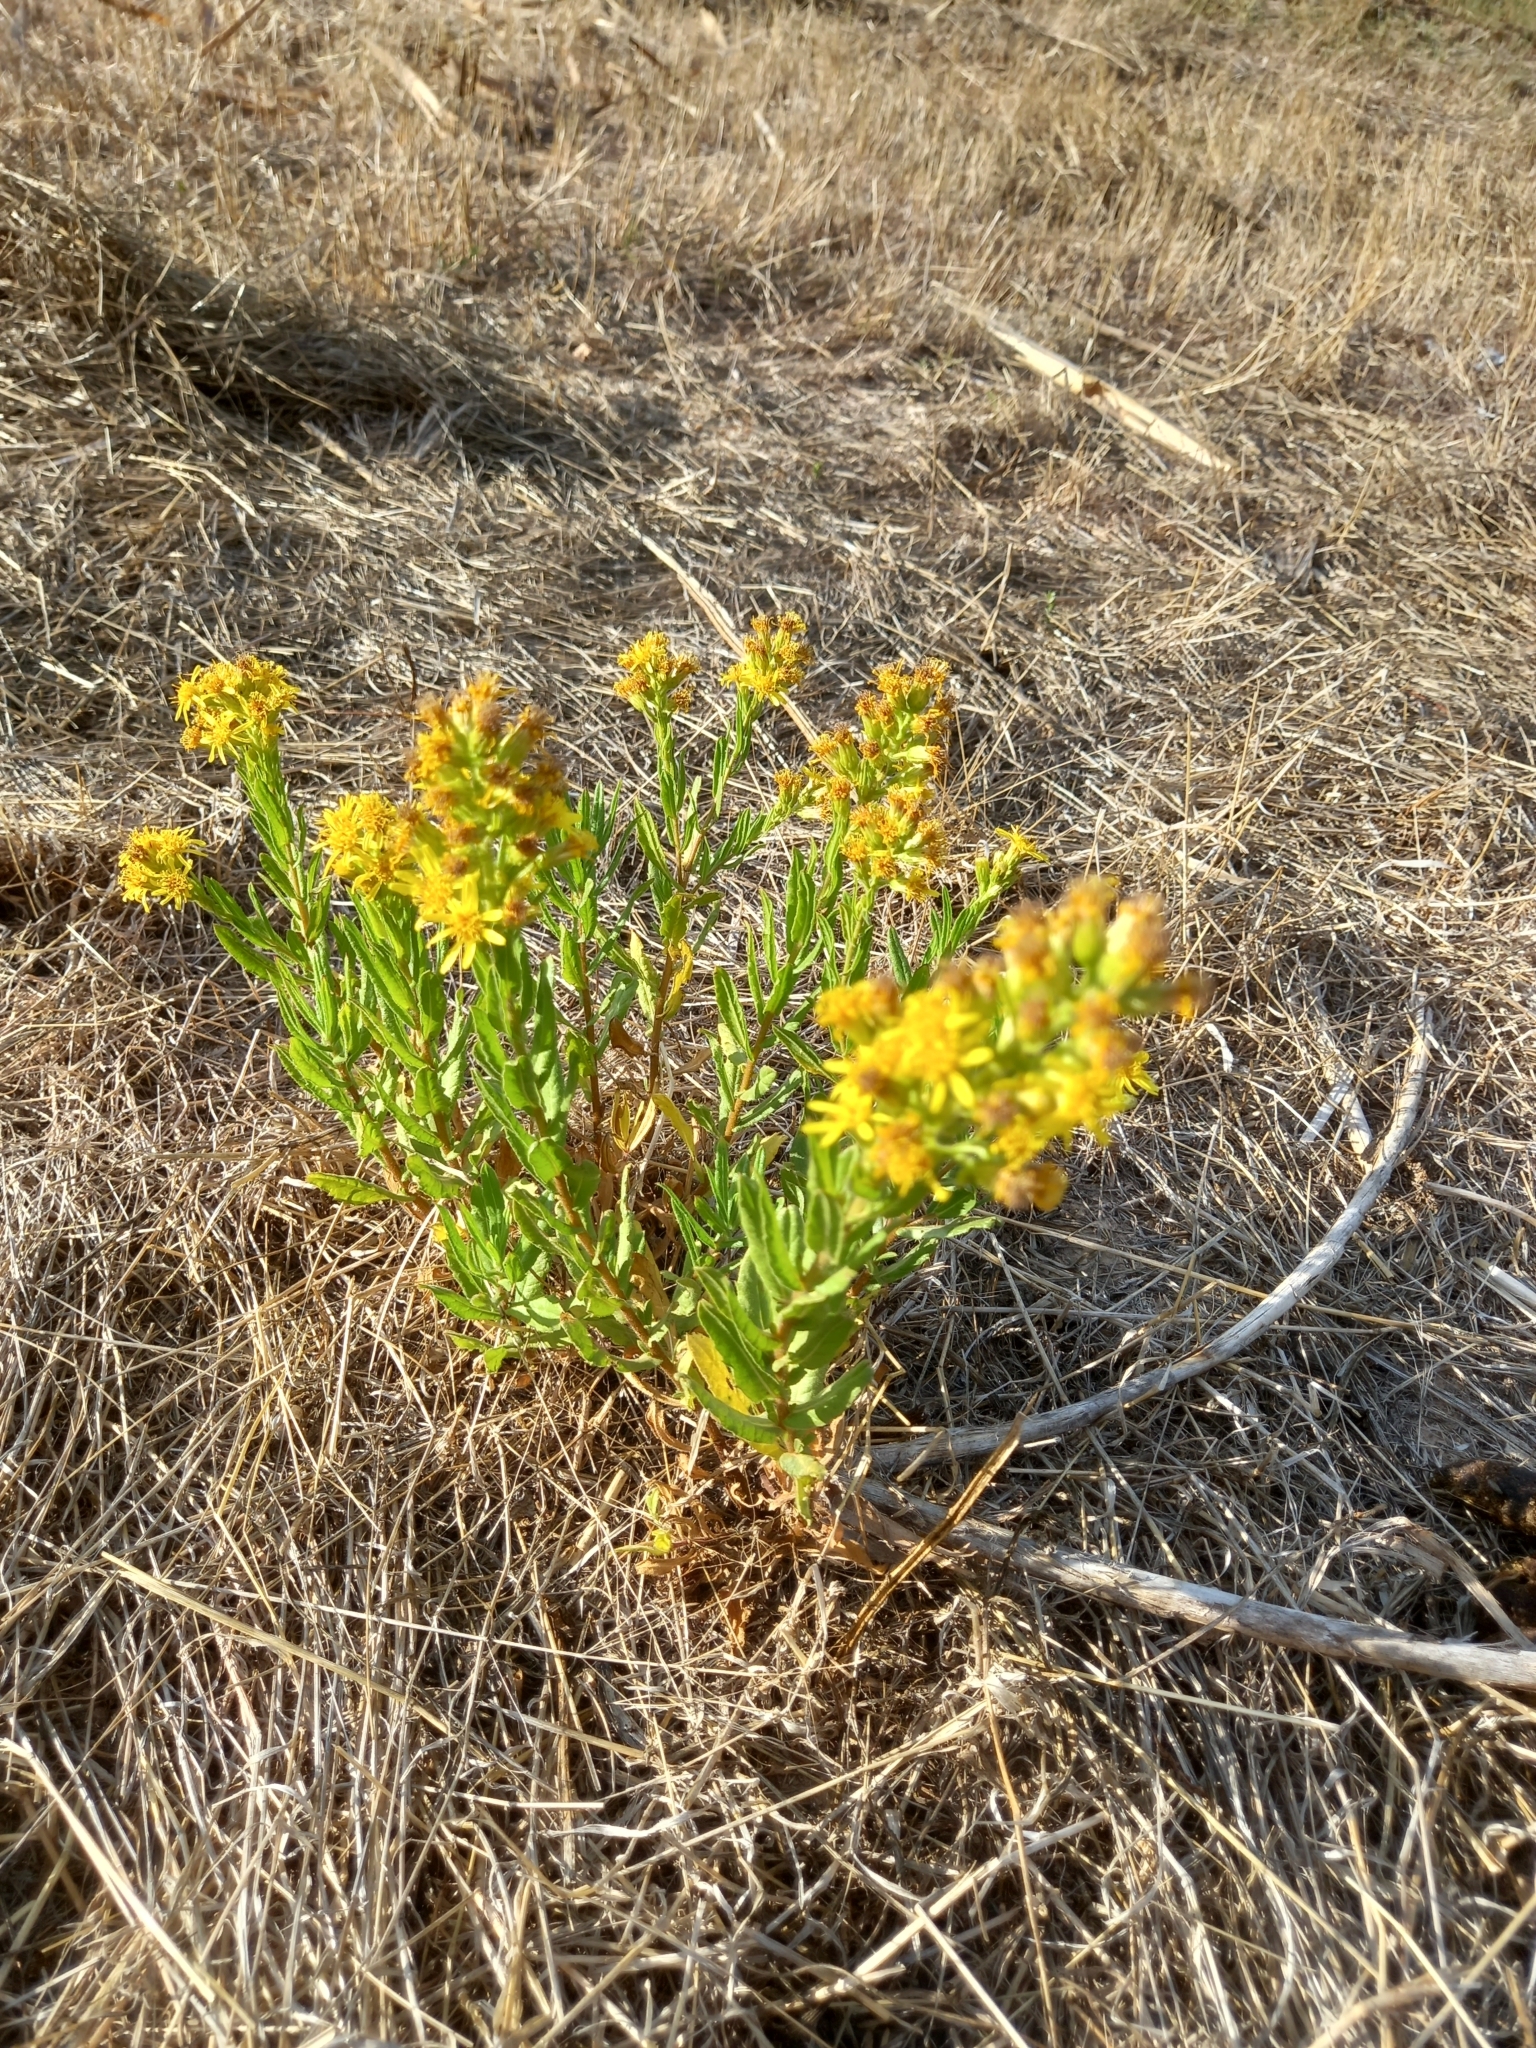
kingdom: Plantae
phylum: Tracheophyta
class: Magnoliopsida
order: Asterales
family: Asteraceae
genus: Dittrichia
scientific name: Dittrichia viscosa
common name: Woody fleabane
